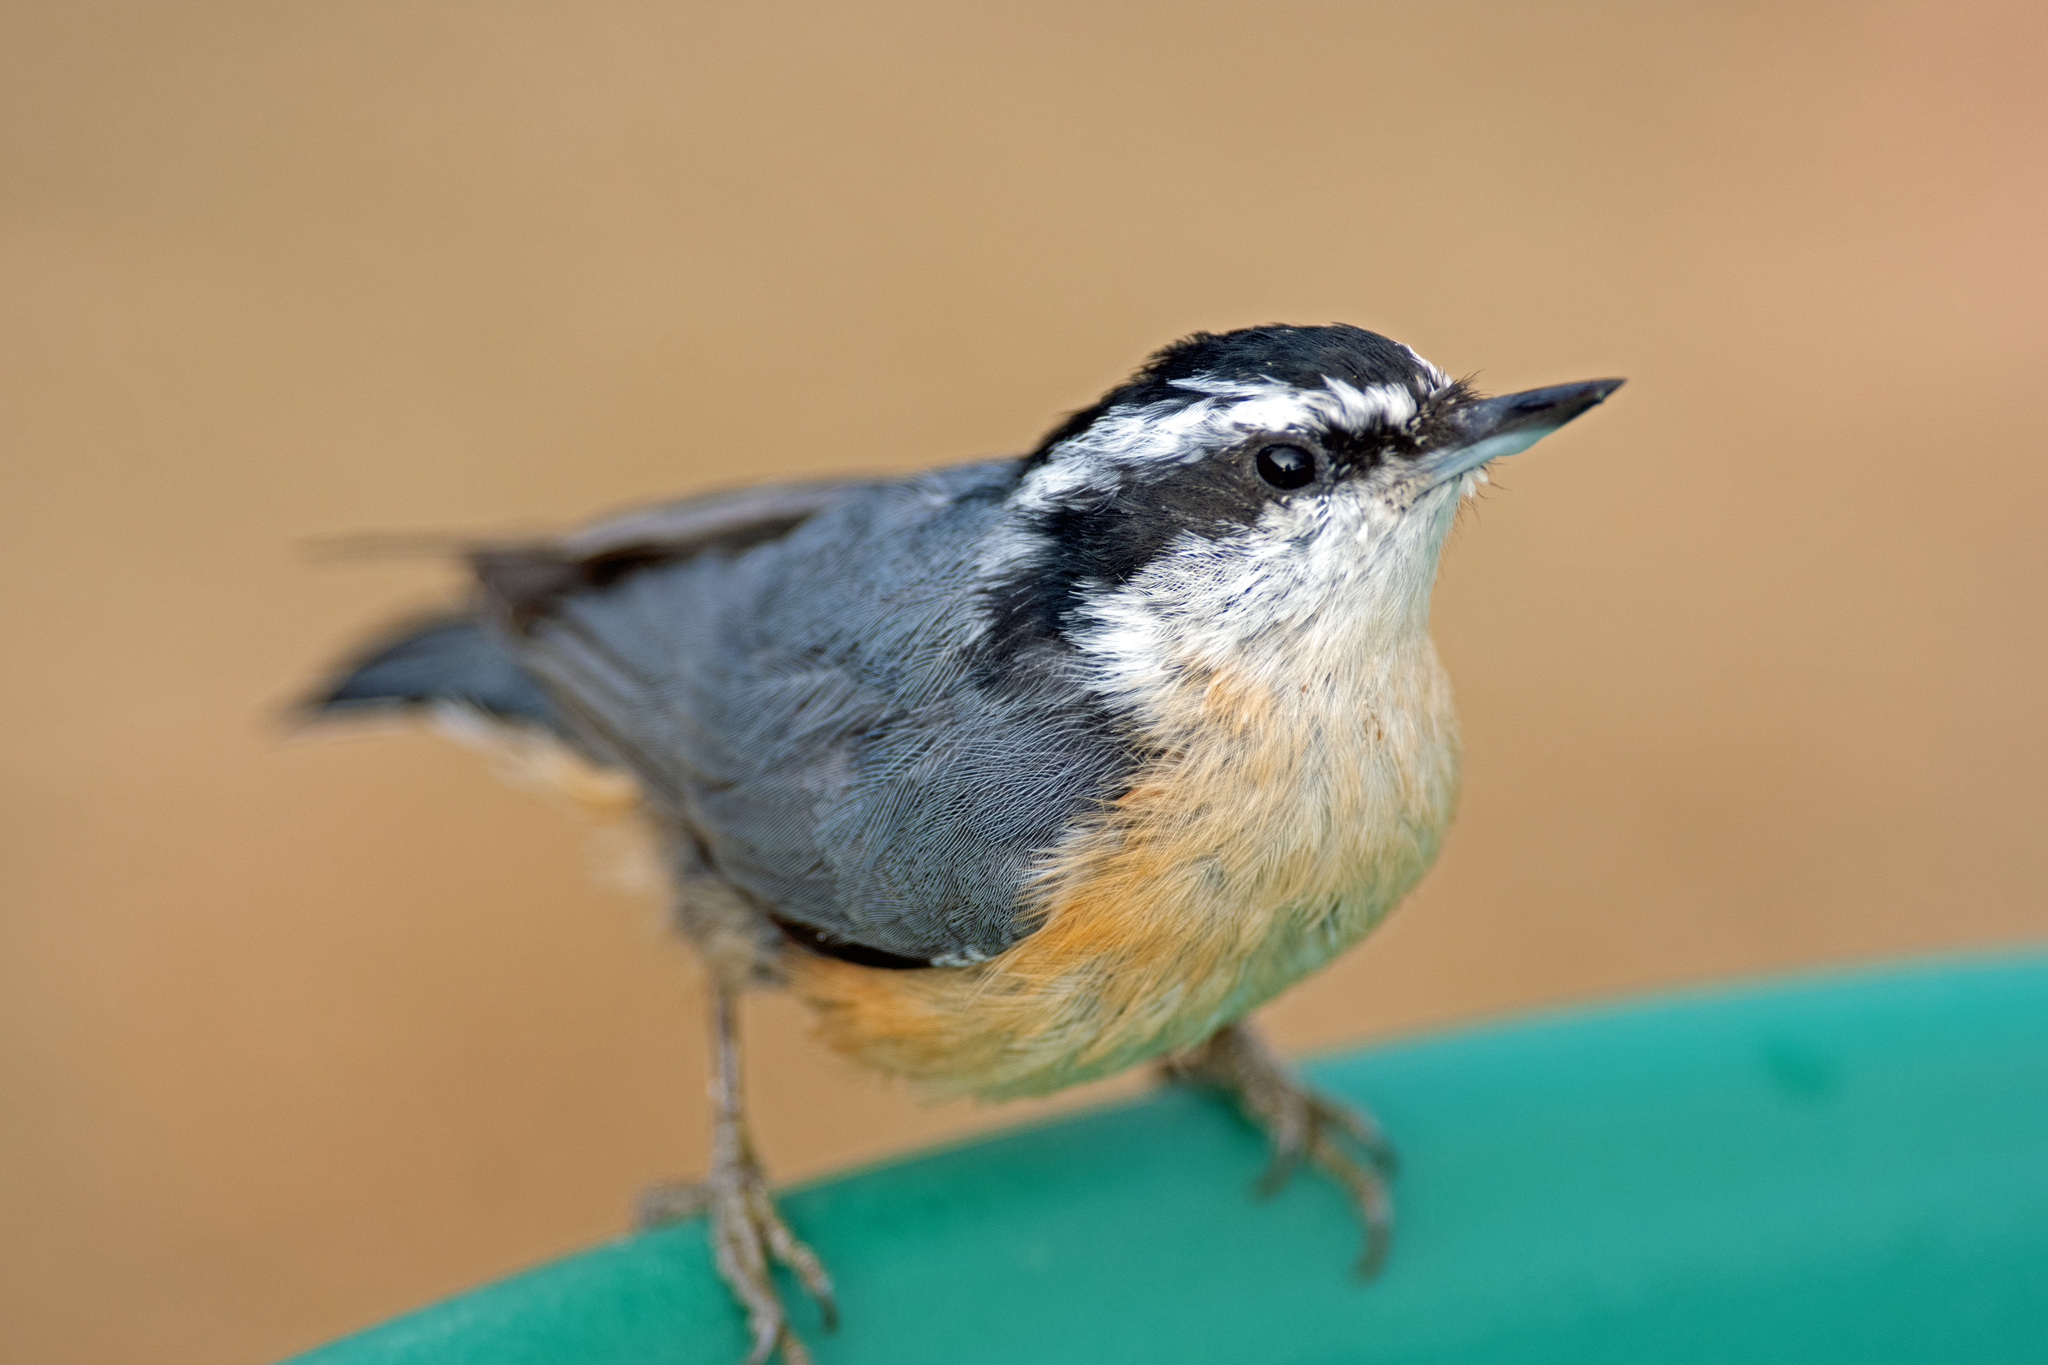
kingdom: Animalia
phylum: Chordata
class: Aves
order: Passeriformes
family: Sittidae
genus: Sitta
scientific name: Sitta canadensis
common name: Red-breasted nuthatch
